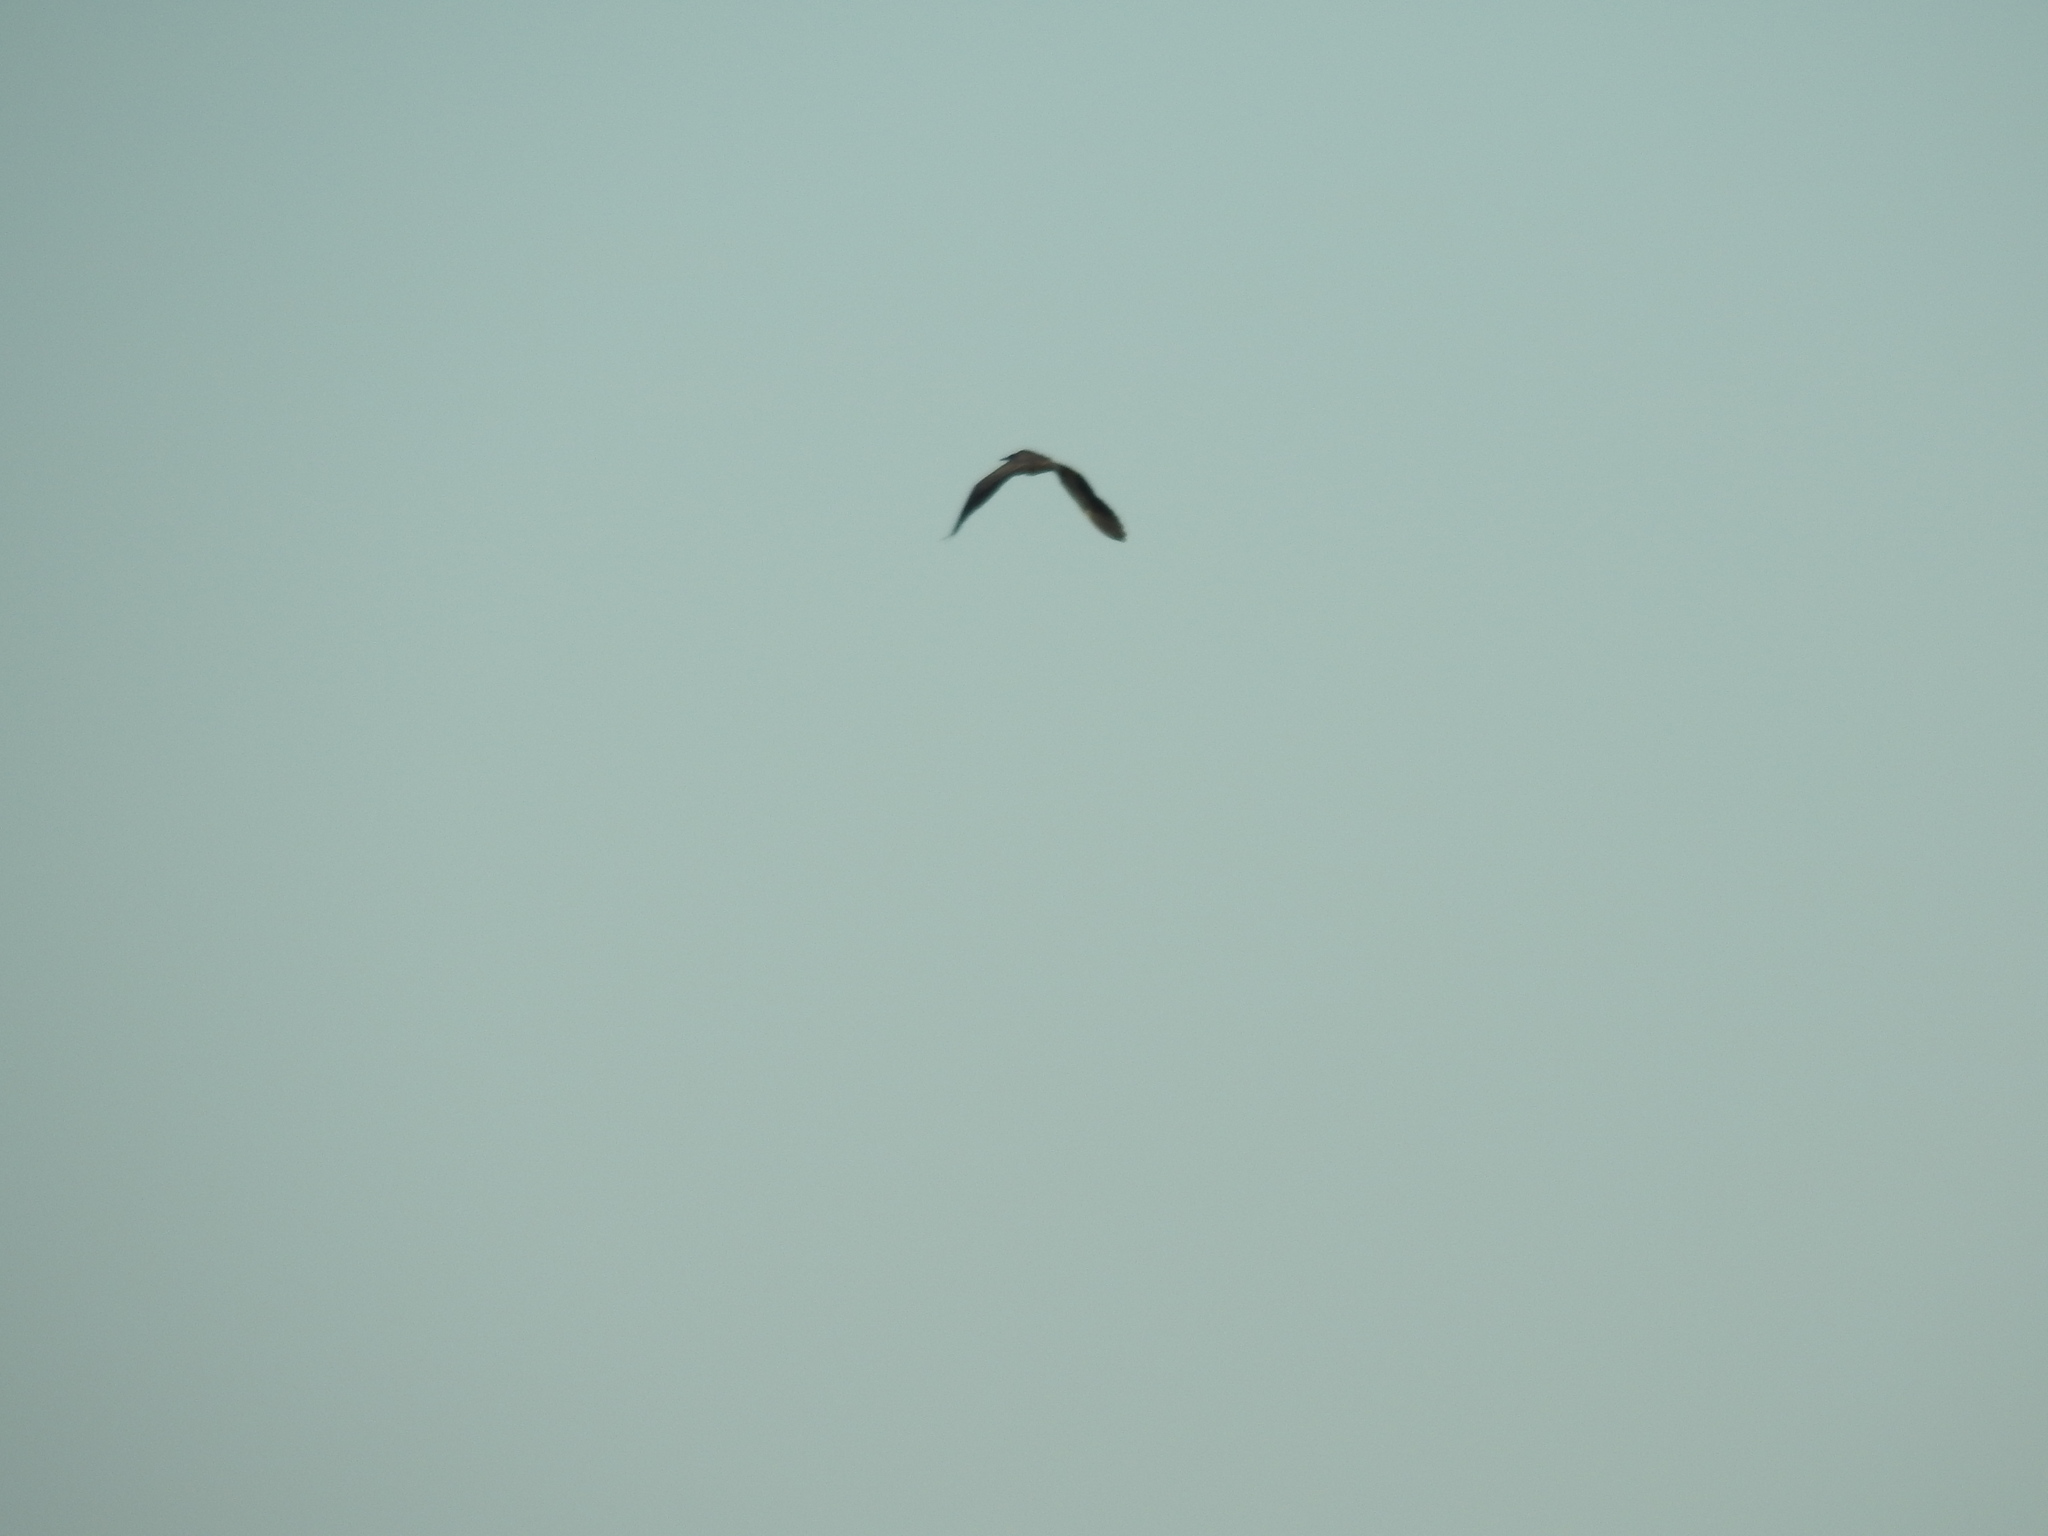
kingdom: Animalia
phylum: Chordata
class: Aves
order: Pelecaniformes
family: Ardeidae
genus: Egretta
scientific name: Egretta sacra
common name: Pacific reef heron
